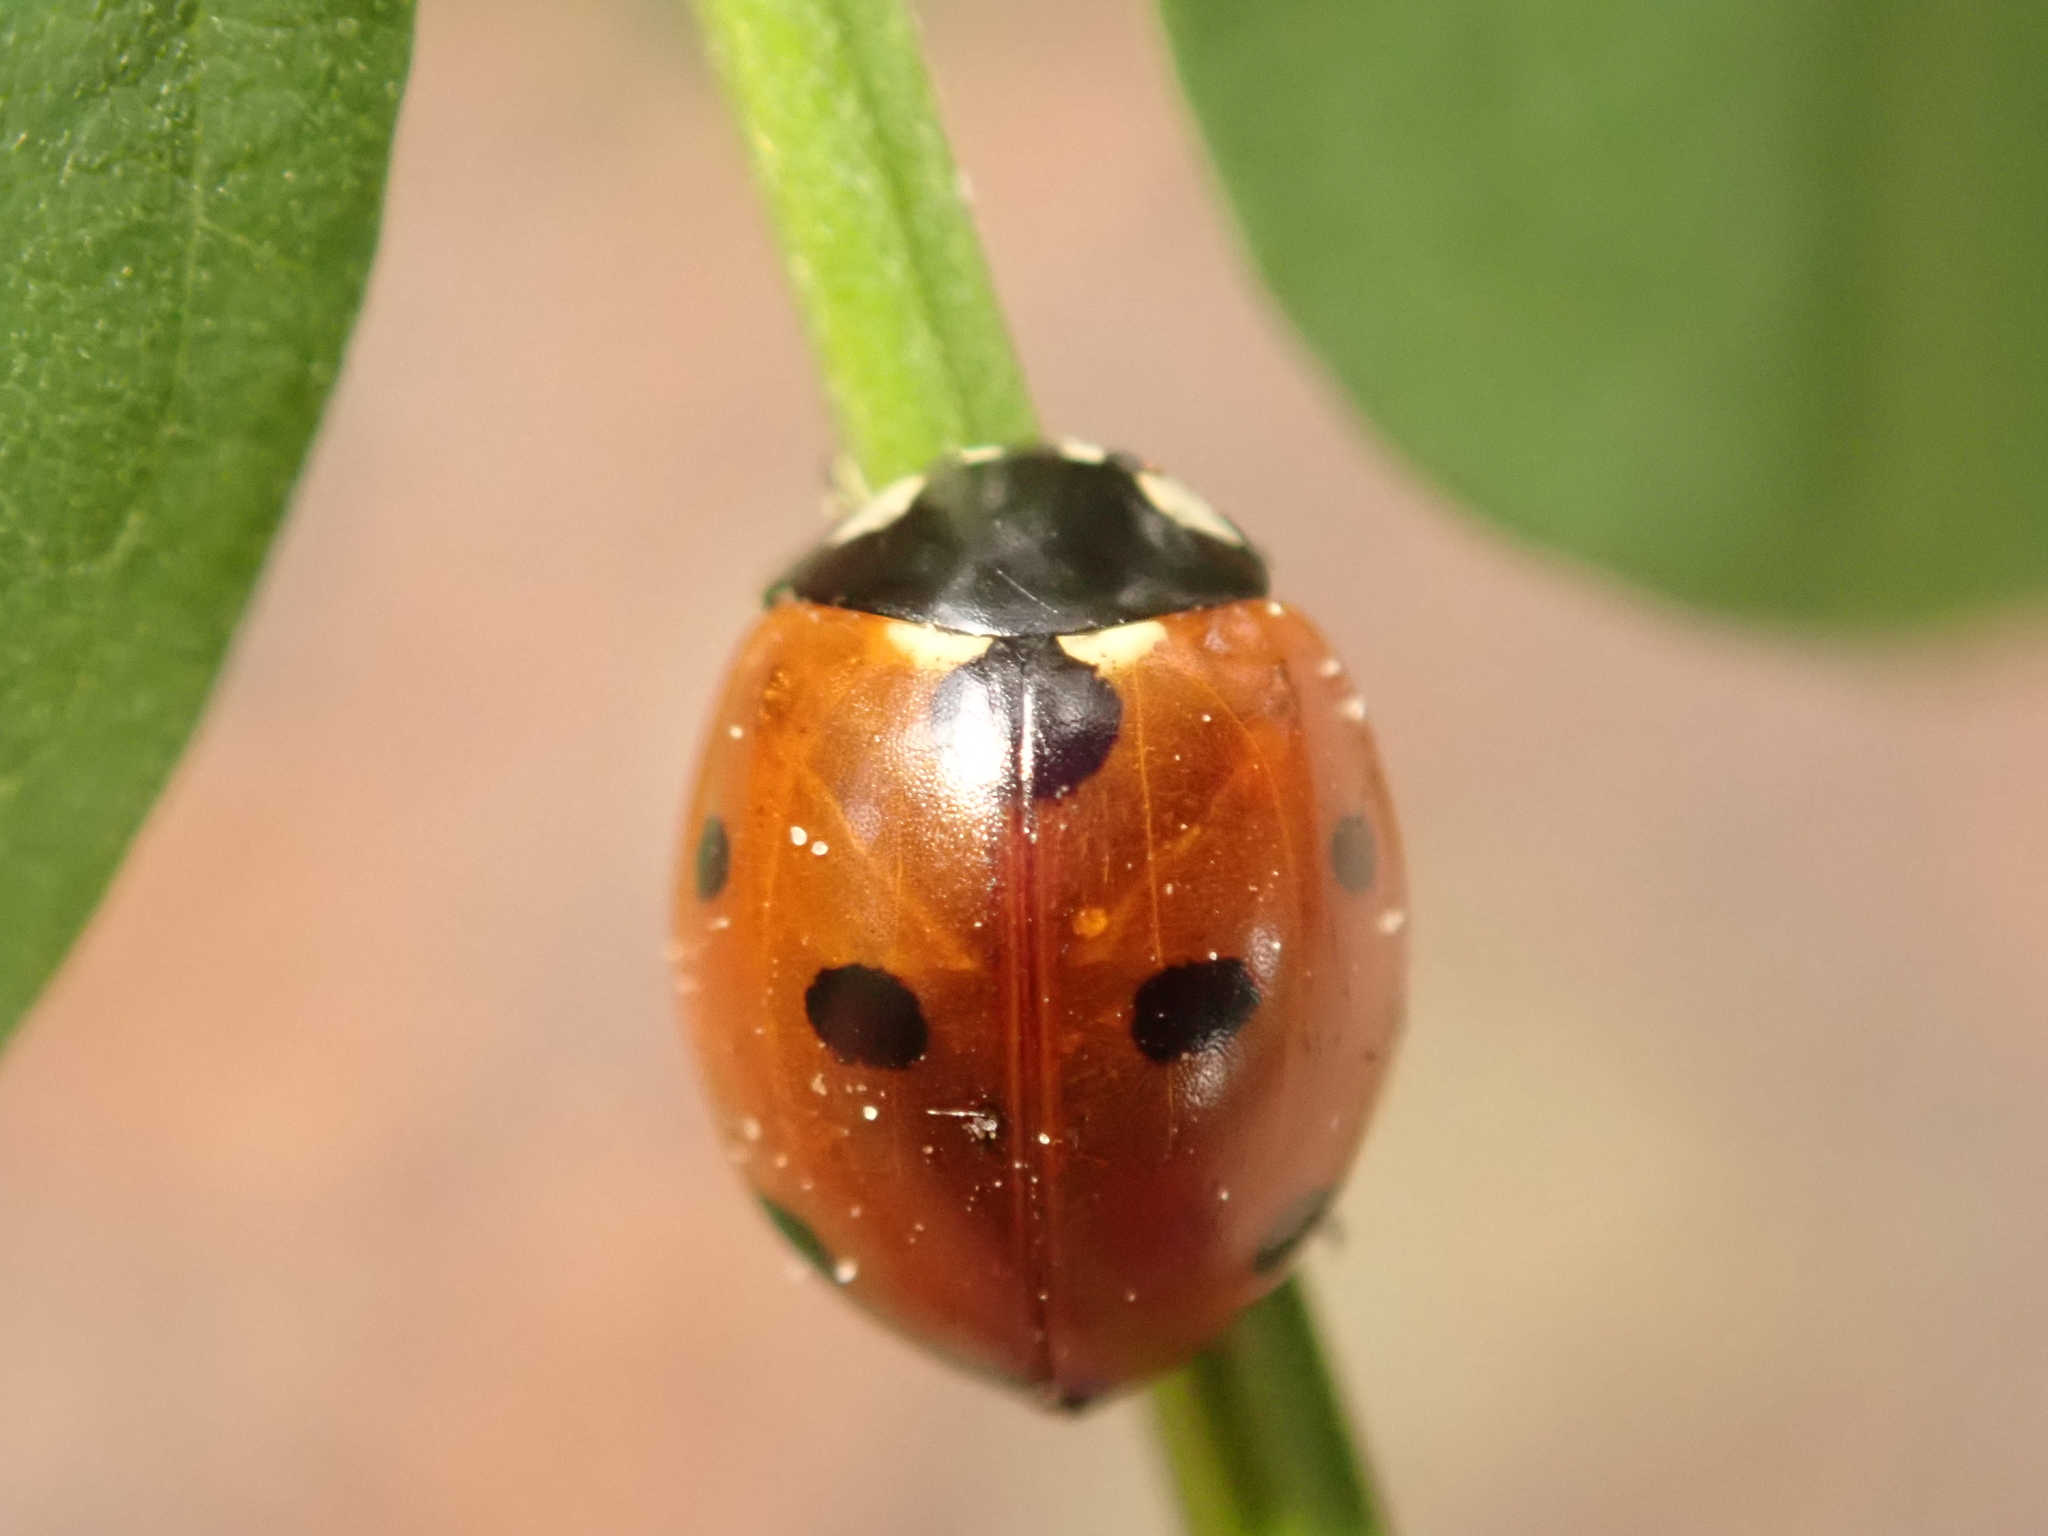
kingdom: Animalia
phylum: Arthropoda
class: Insecta
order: Coleoptera
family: Coccinellidae
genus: Coccinella
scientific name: Coccinella septempunctata
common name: Sevenspotted lady beetle
